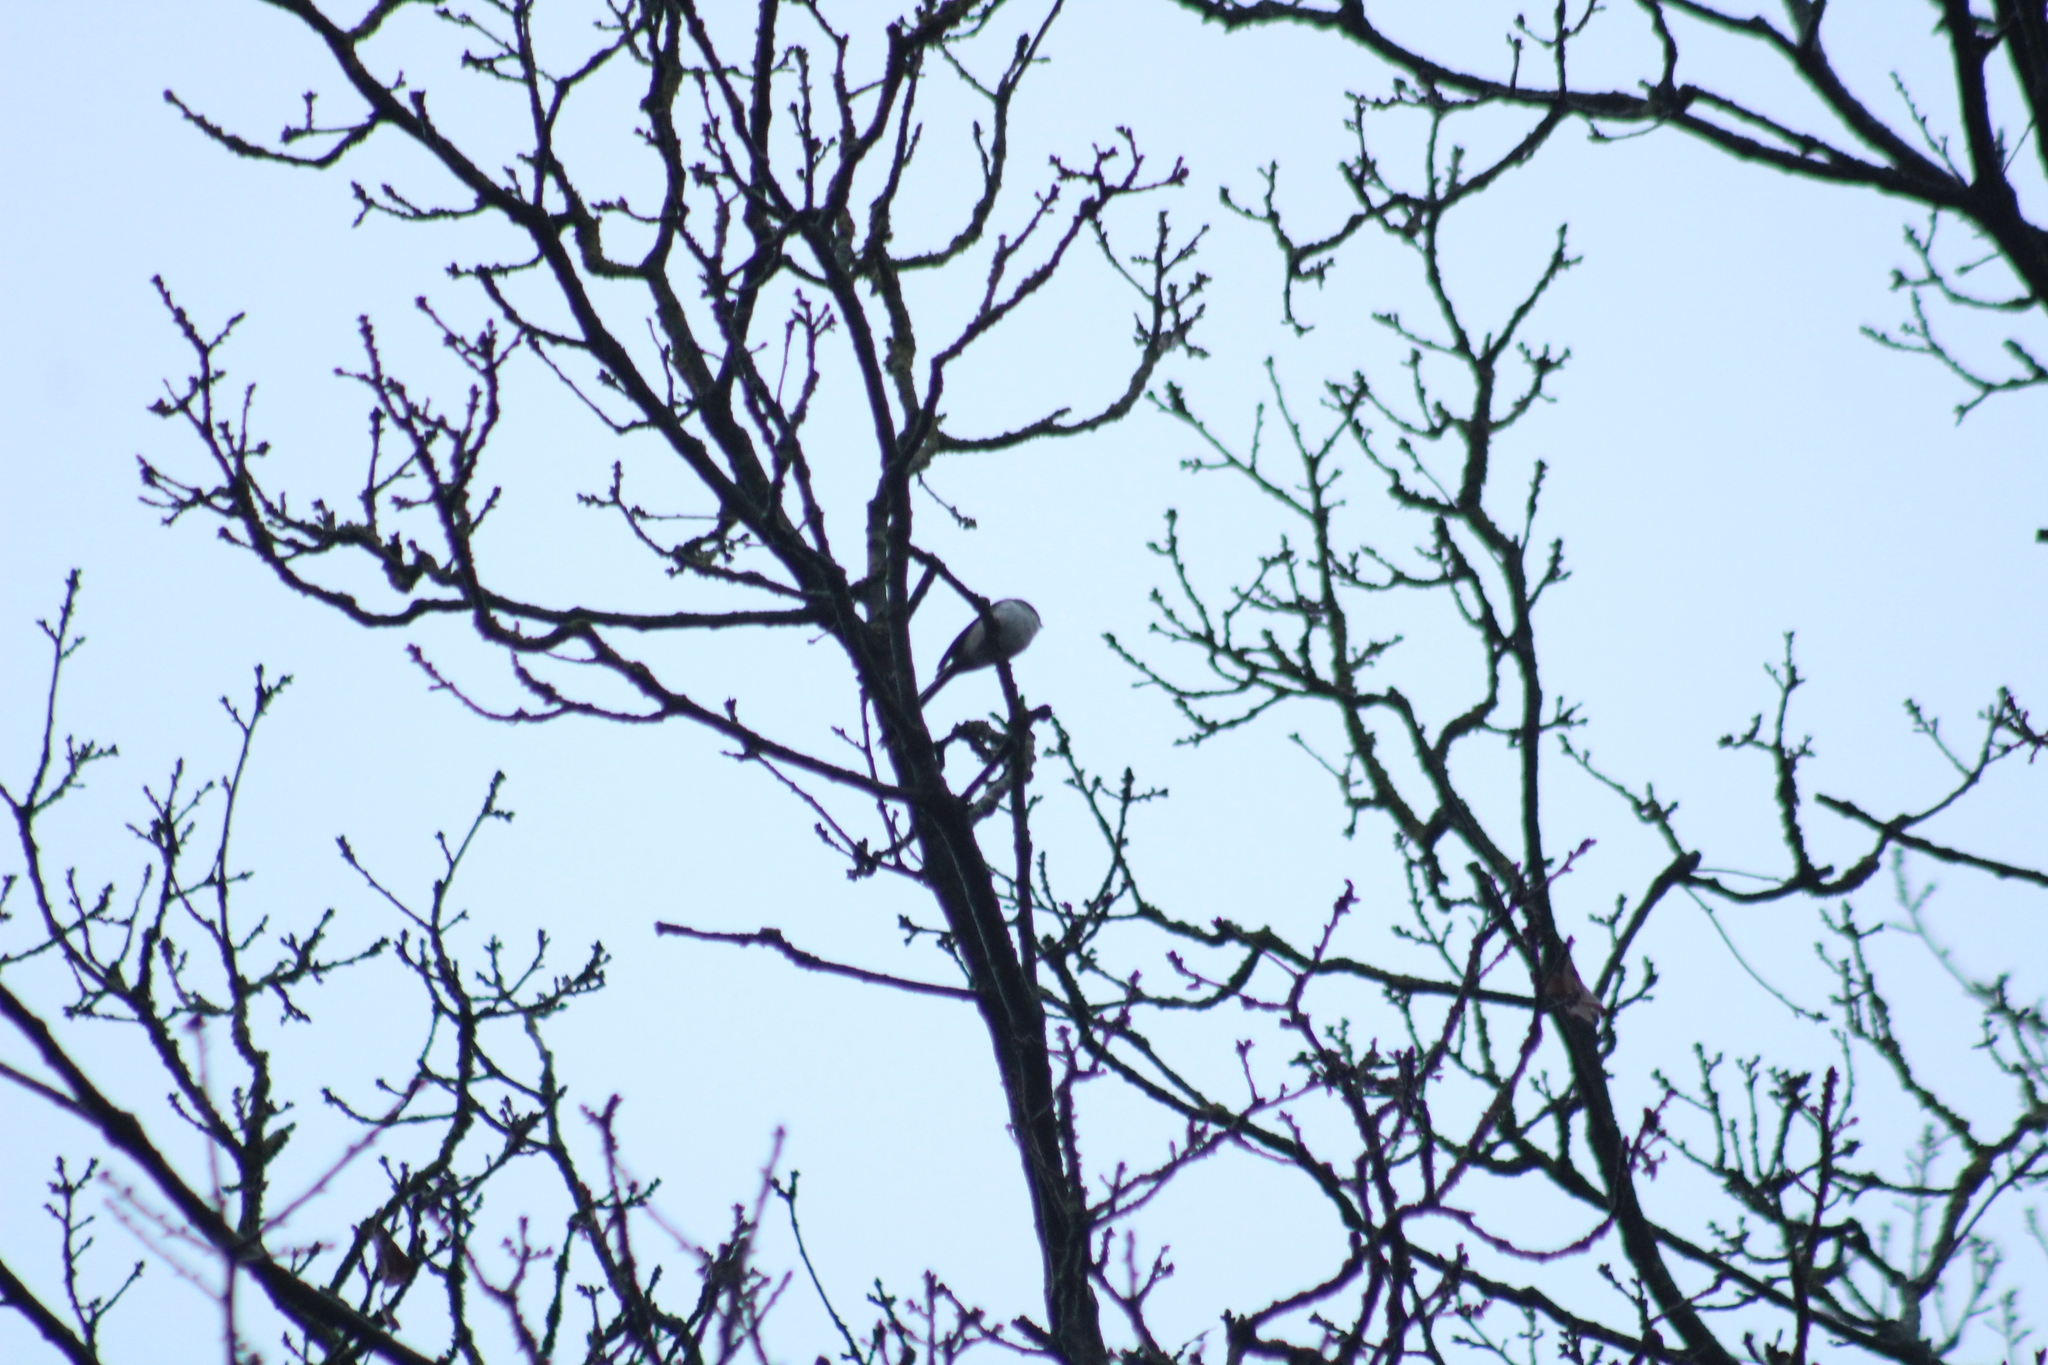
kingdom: Animalia
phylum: Chordata
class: Aves
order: Passeriformes
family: Aegithalidae
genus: Aegithalos
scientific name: Aegithalos caudatus
